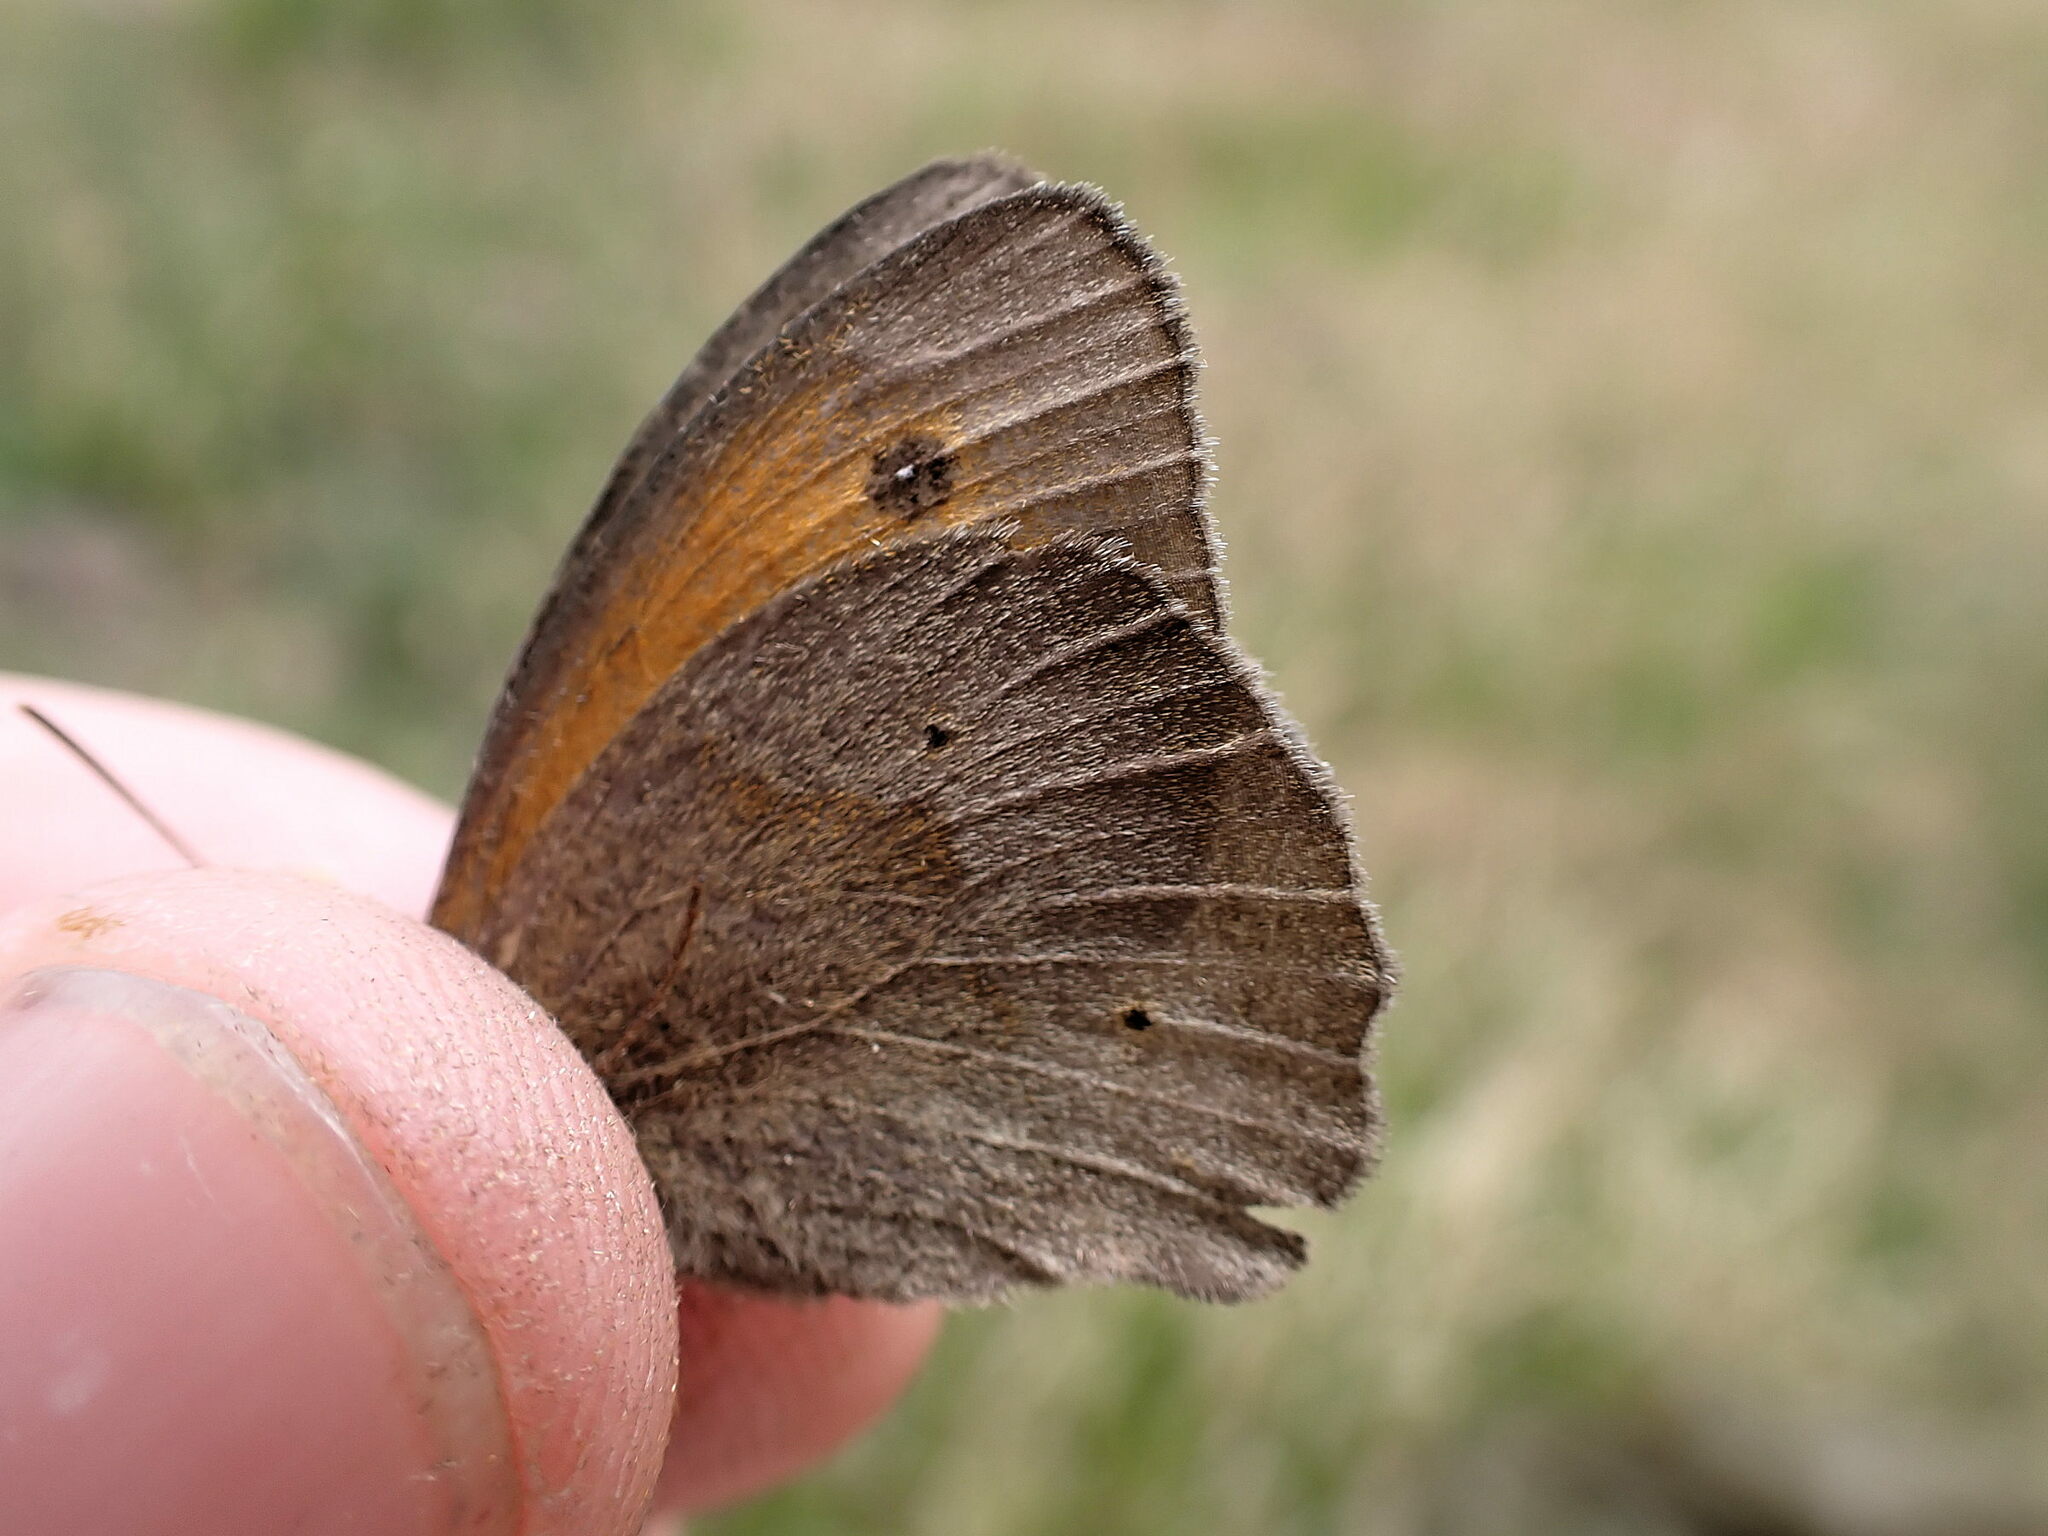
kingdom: Animalia
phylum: Arthropoda
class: Insecta
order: Lepidoptera
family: Nymphalidae
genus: Maniola
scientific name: Maniola jurtina
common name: Meadow brown
